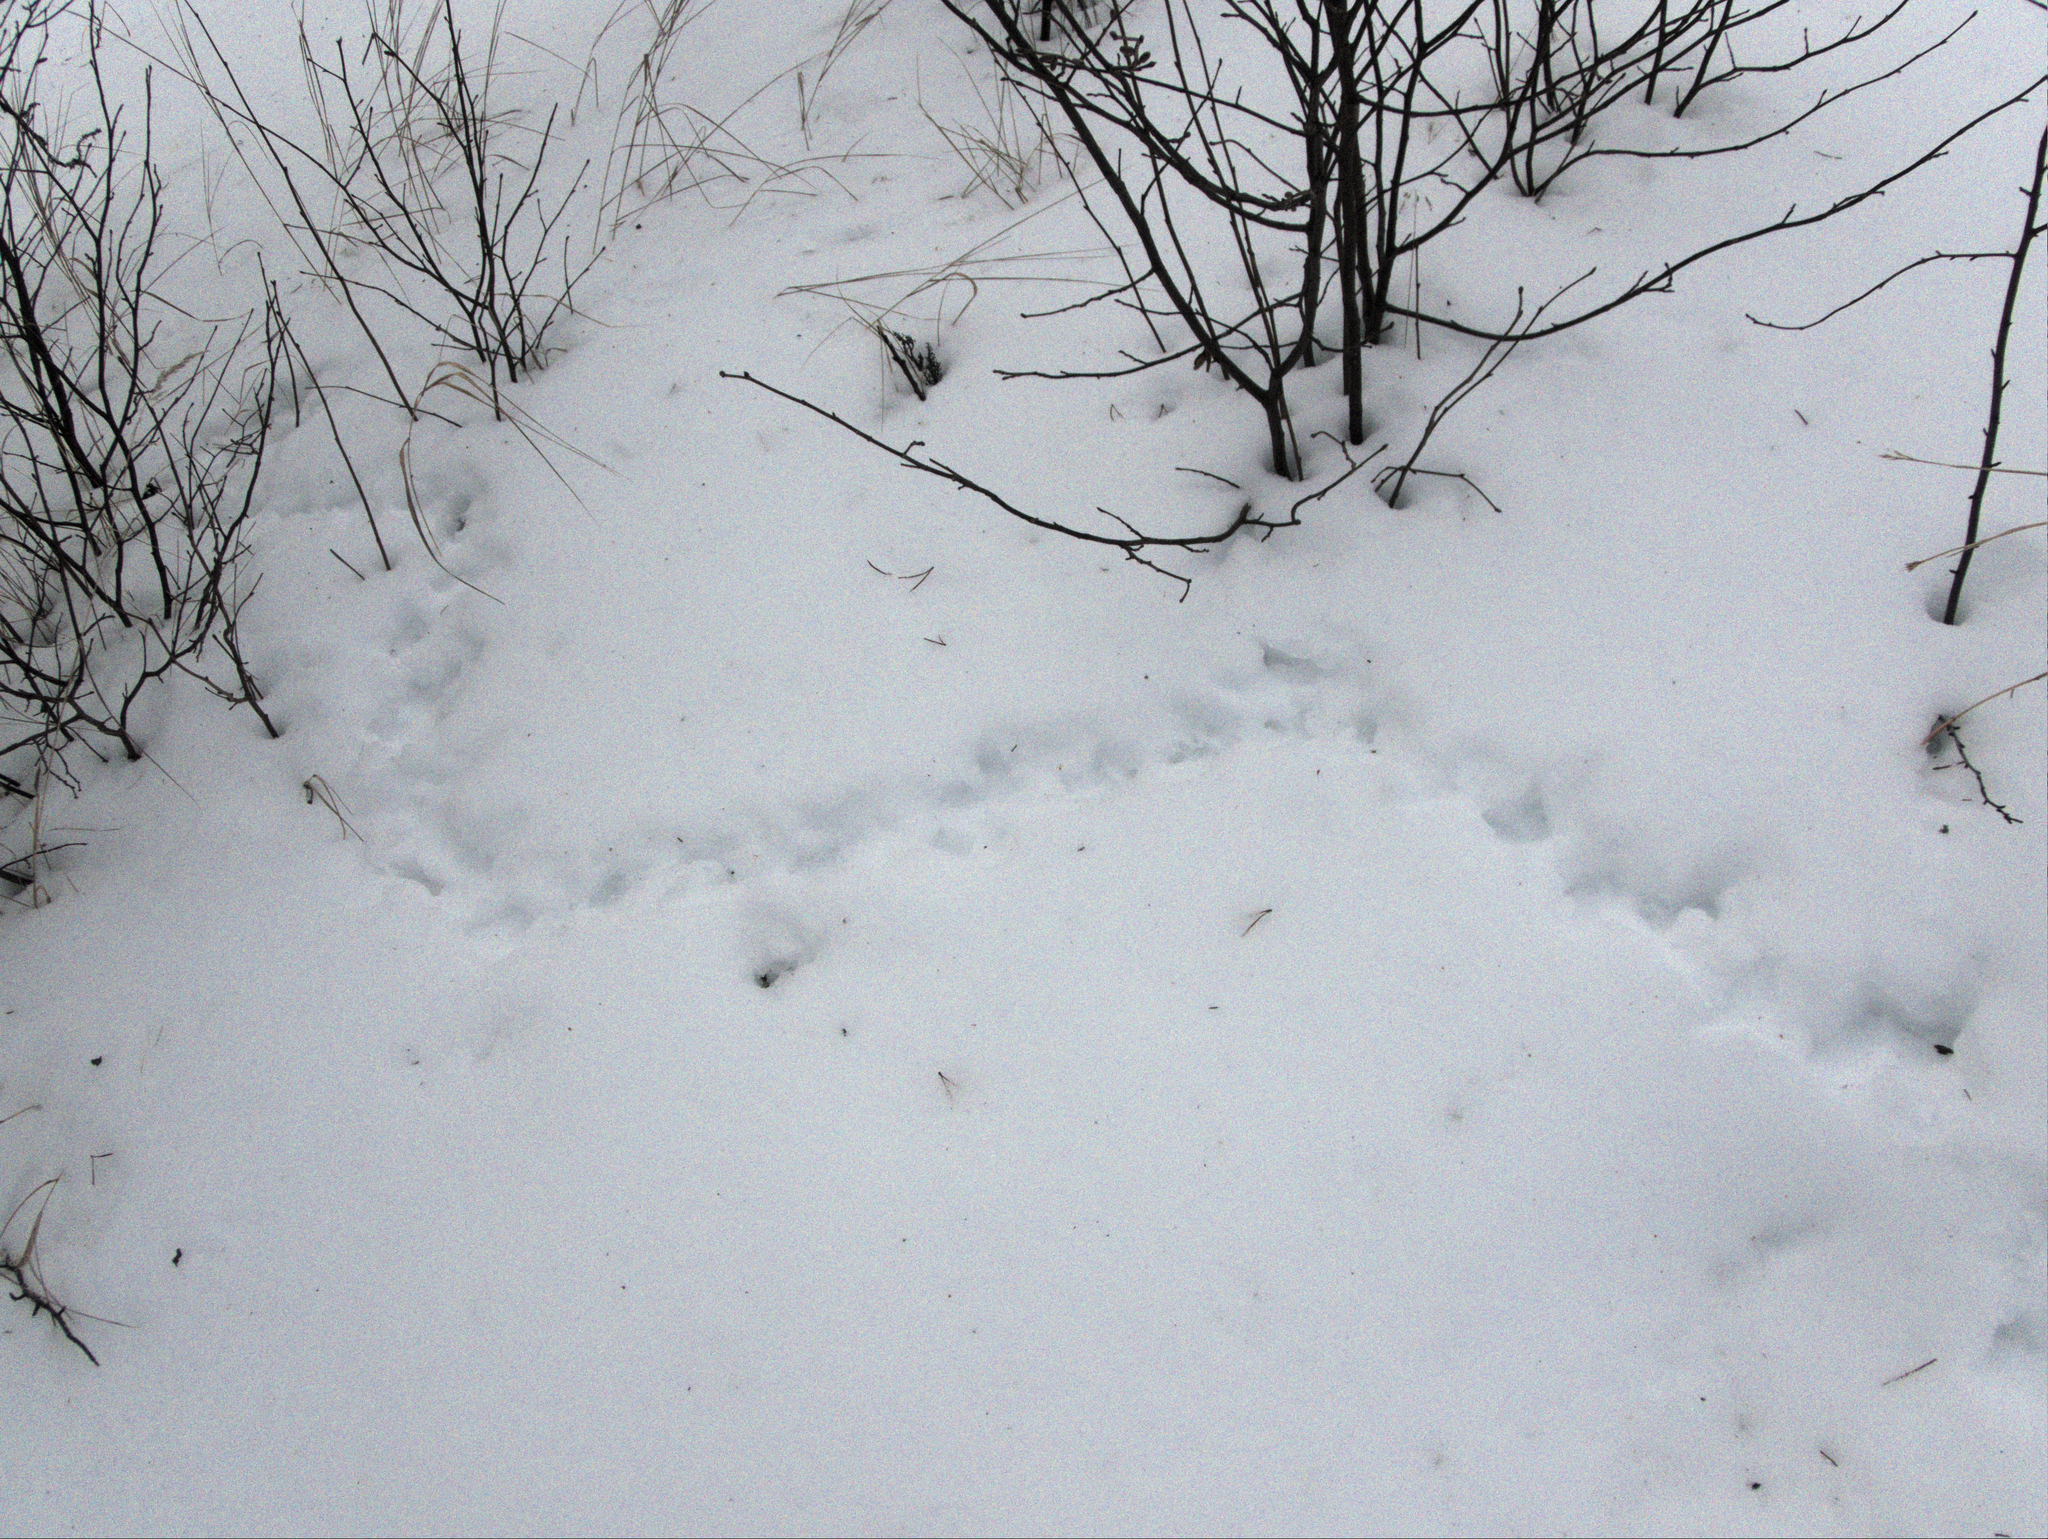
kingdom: Animalia
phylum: Chordata
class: Aves
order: Galliformes
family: Phasianidae
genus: Bonasa
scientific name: Bonasa umbellus
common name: Ruffed grouse
